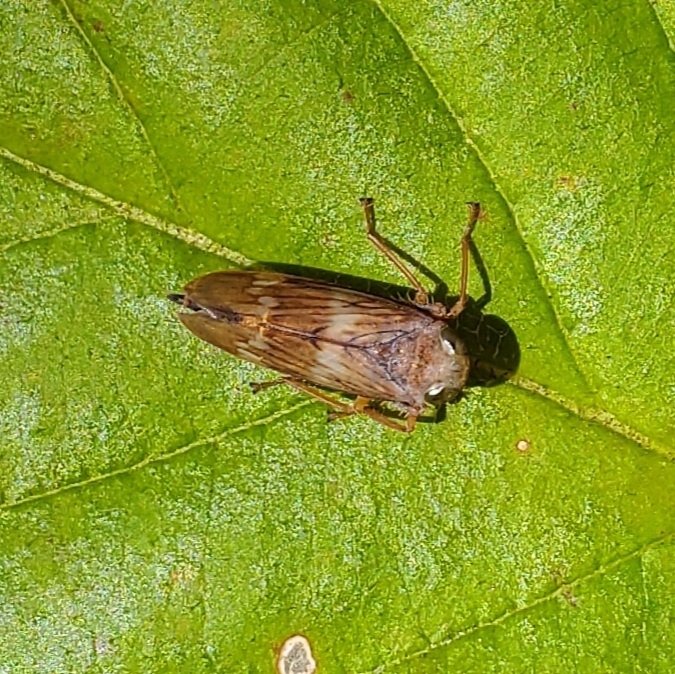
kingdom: Animalia
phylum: Arthropoda
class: Insecta
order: Hemiptera
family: Cicadellidae
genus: Jikradia
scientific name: Jikradia olitoria
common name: Coppery leafhopper
